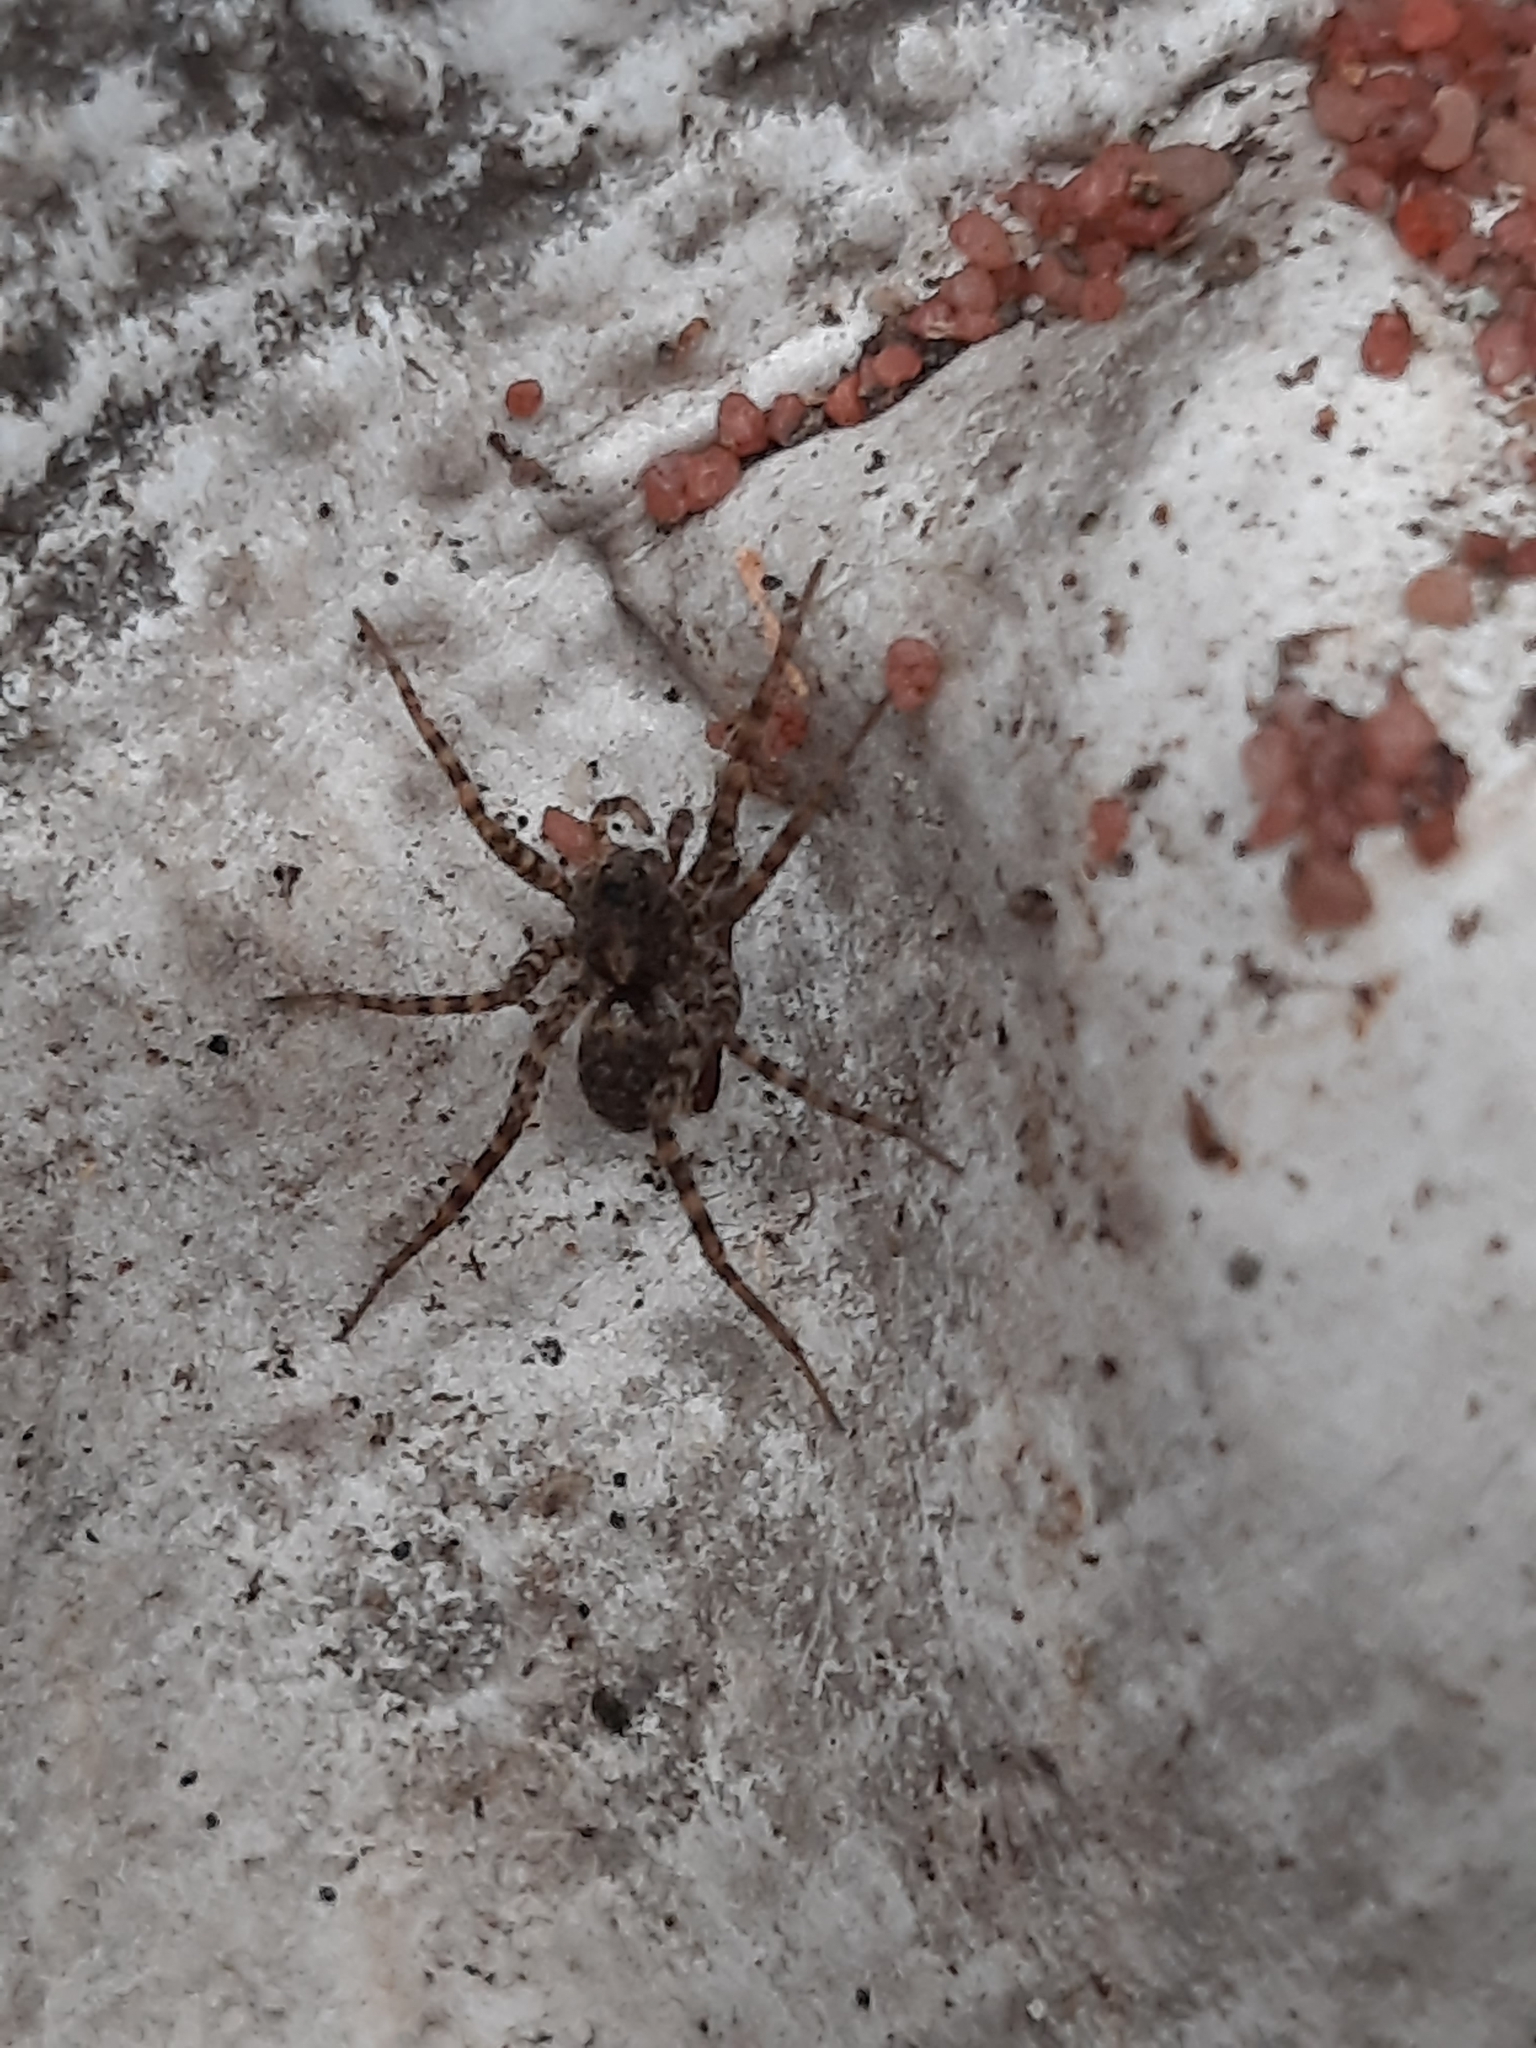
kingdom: Animalia
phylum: Arthropoda
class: Arachnida
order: Araneae
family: Lycosidae
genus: Pardosa
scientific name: Pardosa
